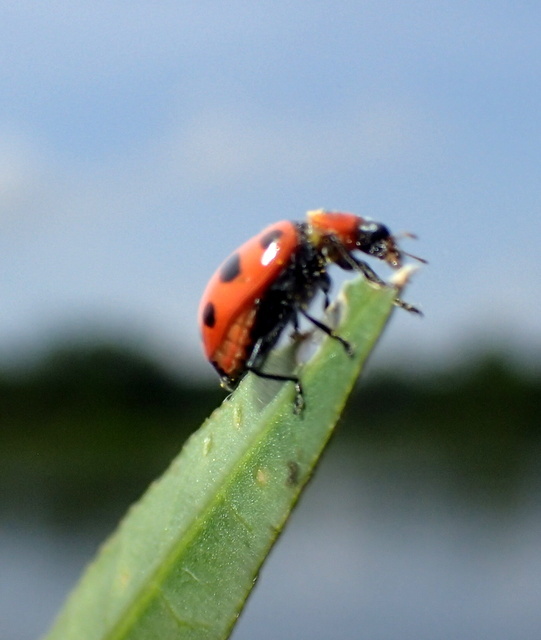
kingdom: Animalia
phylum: Arthropoda
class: Insecta
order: Coleoptera
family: Coccinellidae
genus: Coleomegilla
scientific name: Coleomegilla maculata
